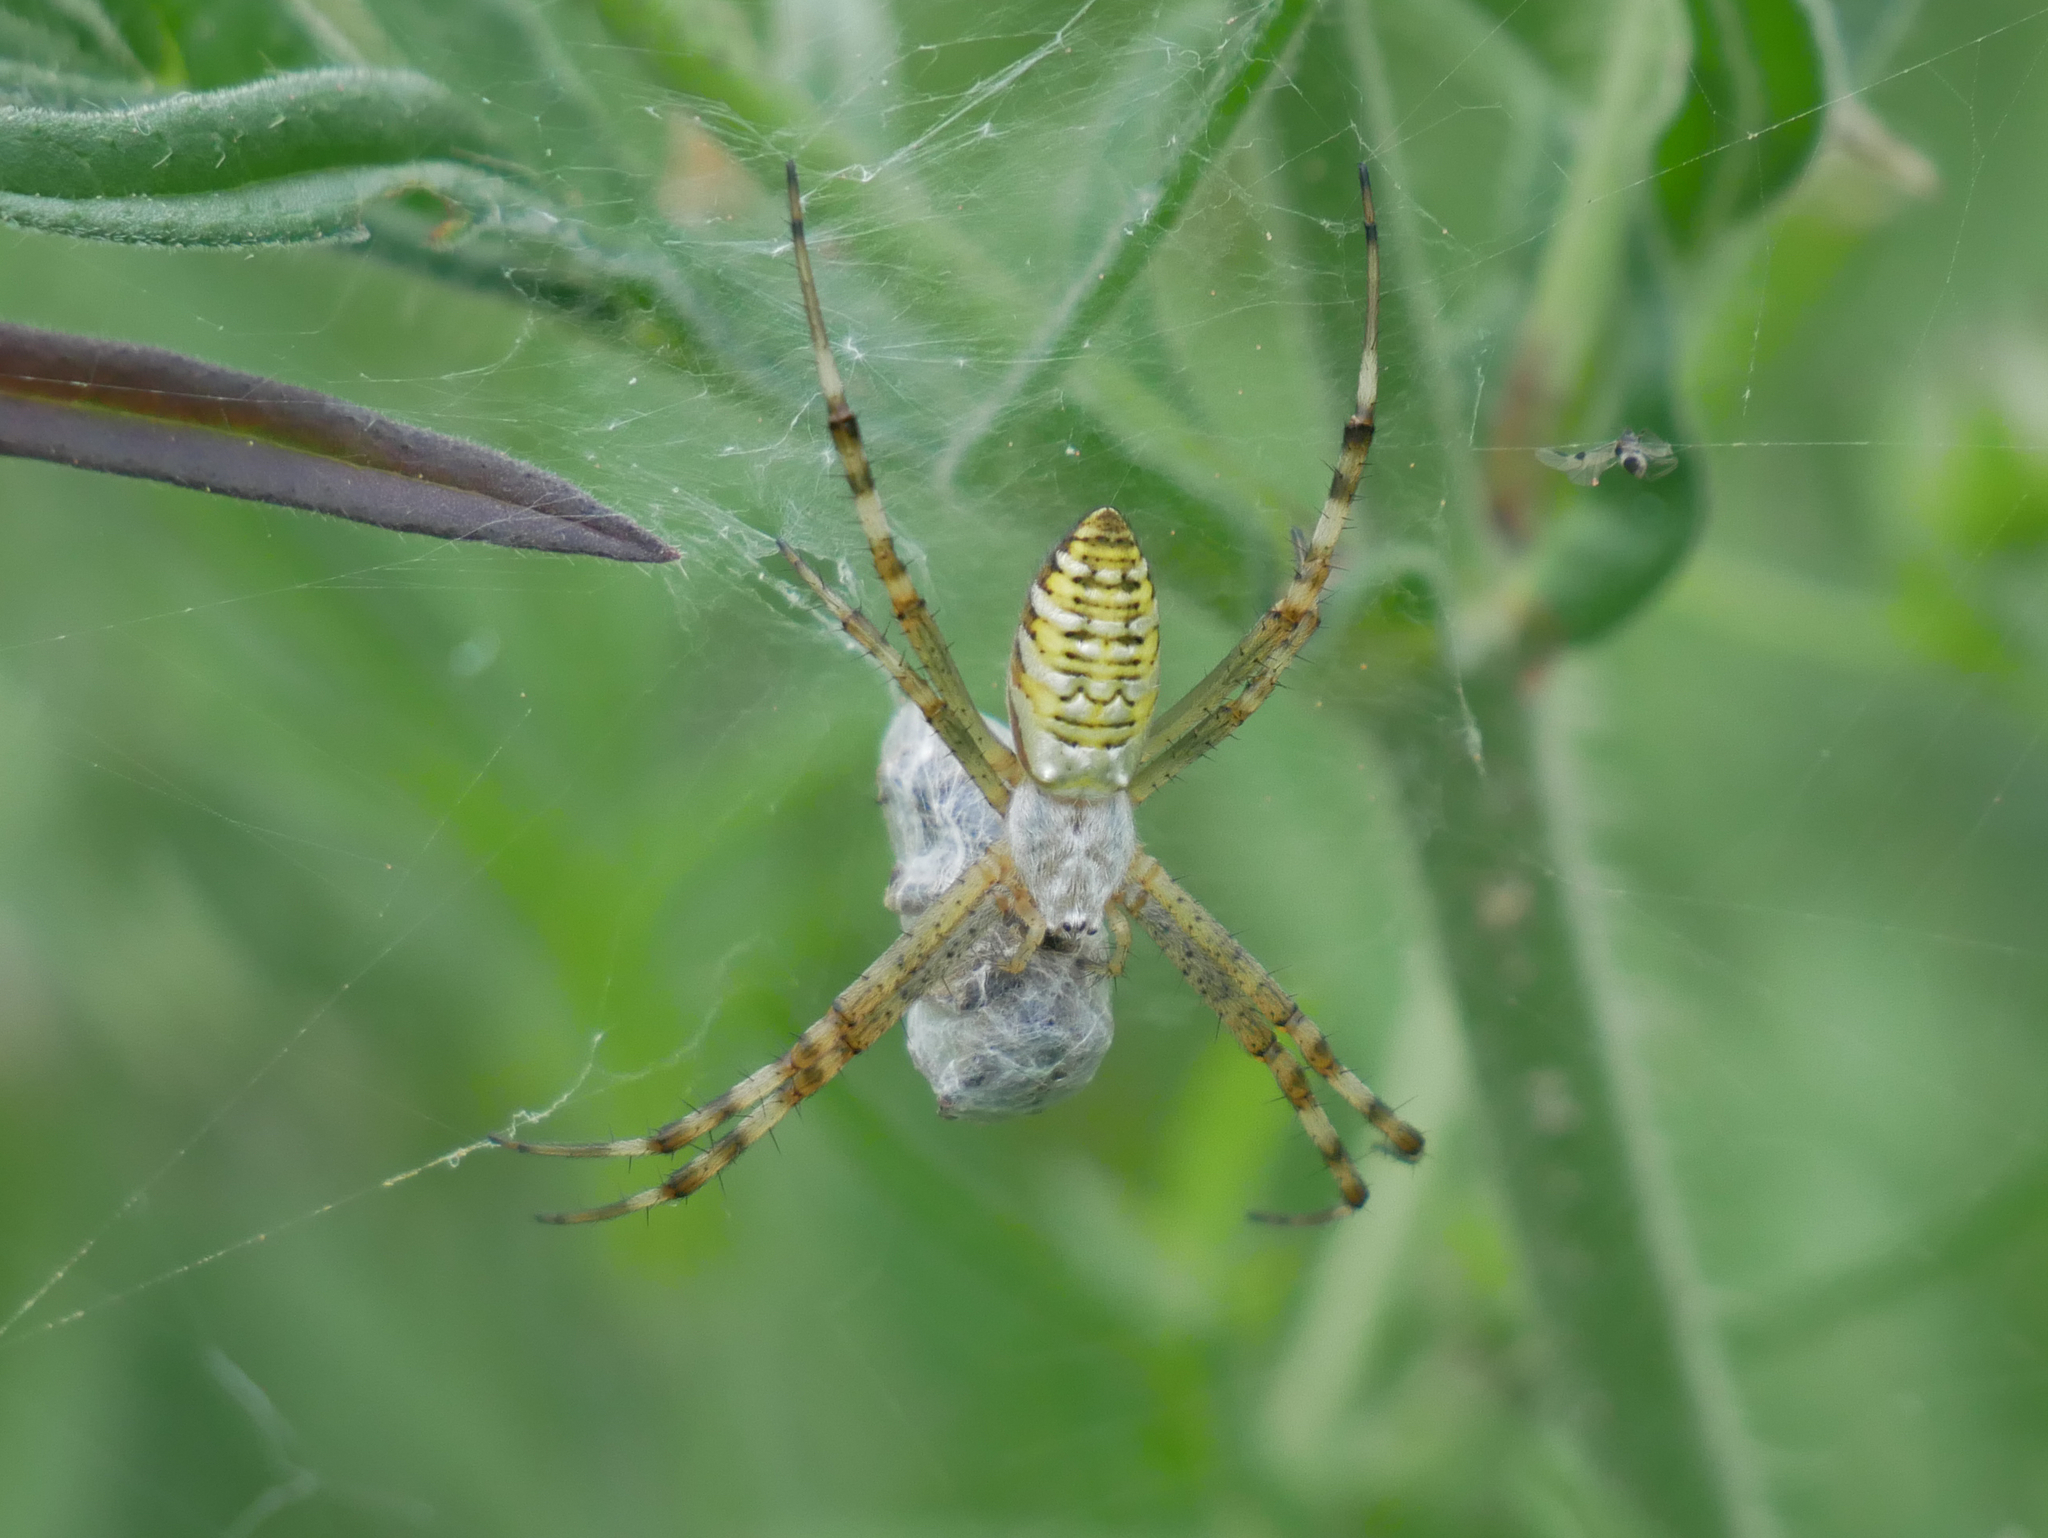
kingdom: Animalia
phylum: Arthropoda
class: Arachnida
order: Araneae
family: Araneidae
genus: Argiope
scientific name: Argiope bruennichi
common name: Wasp spider
